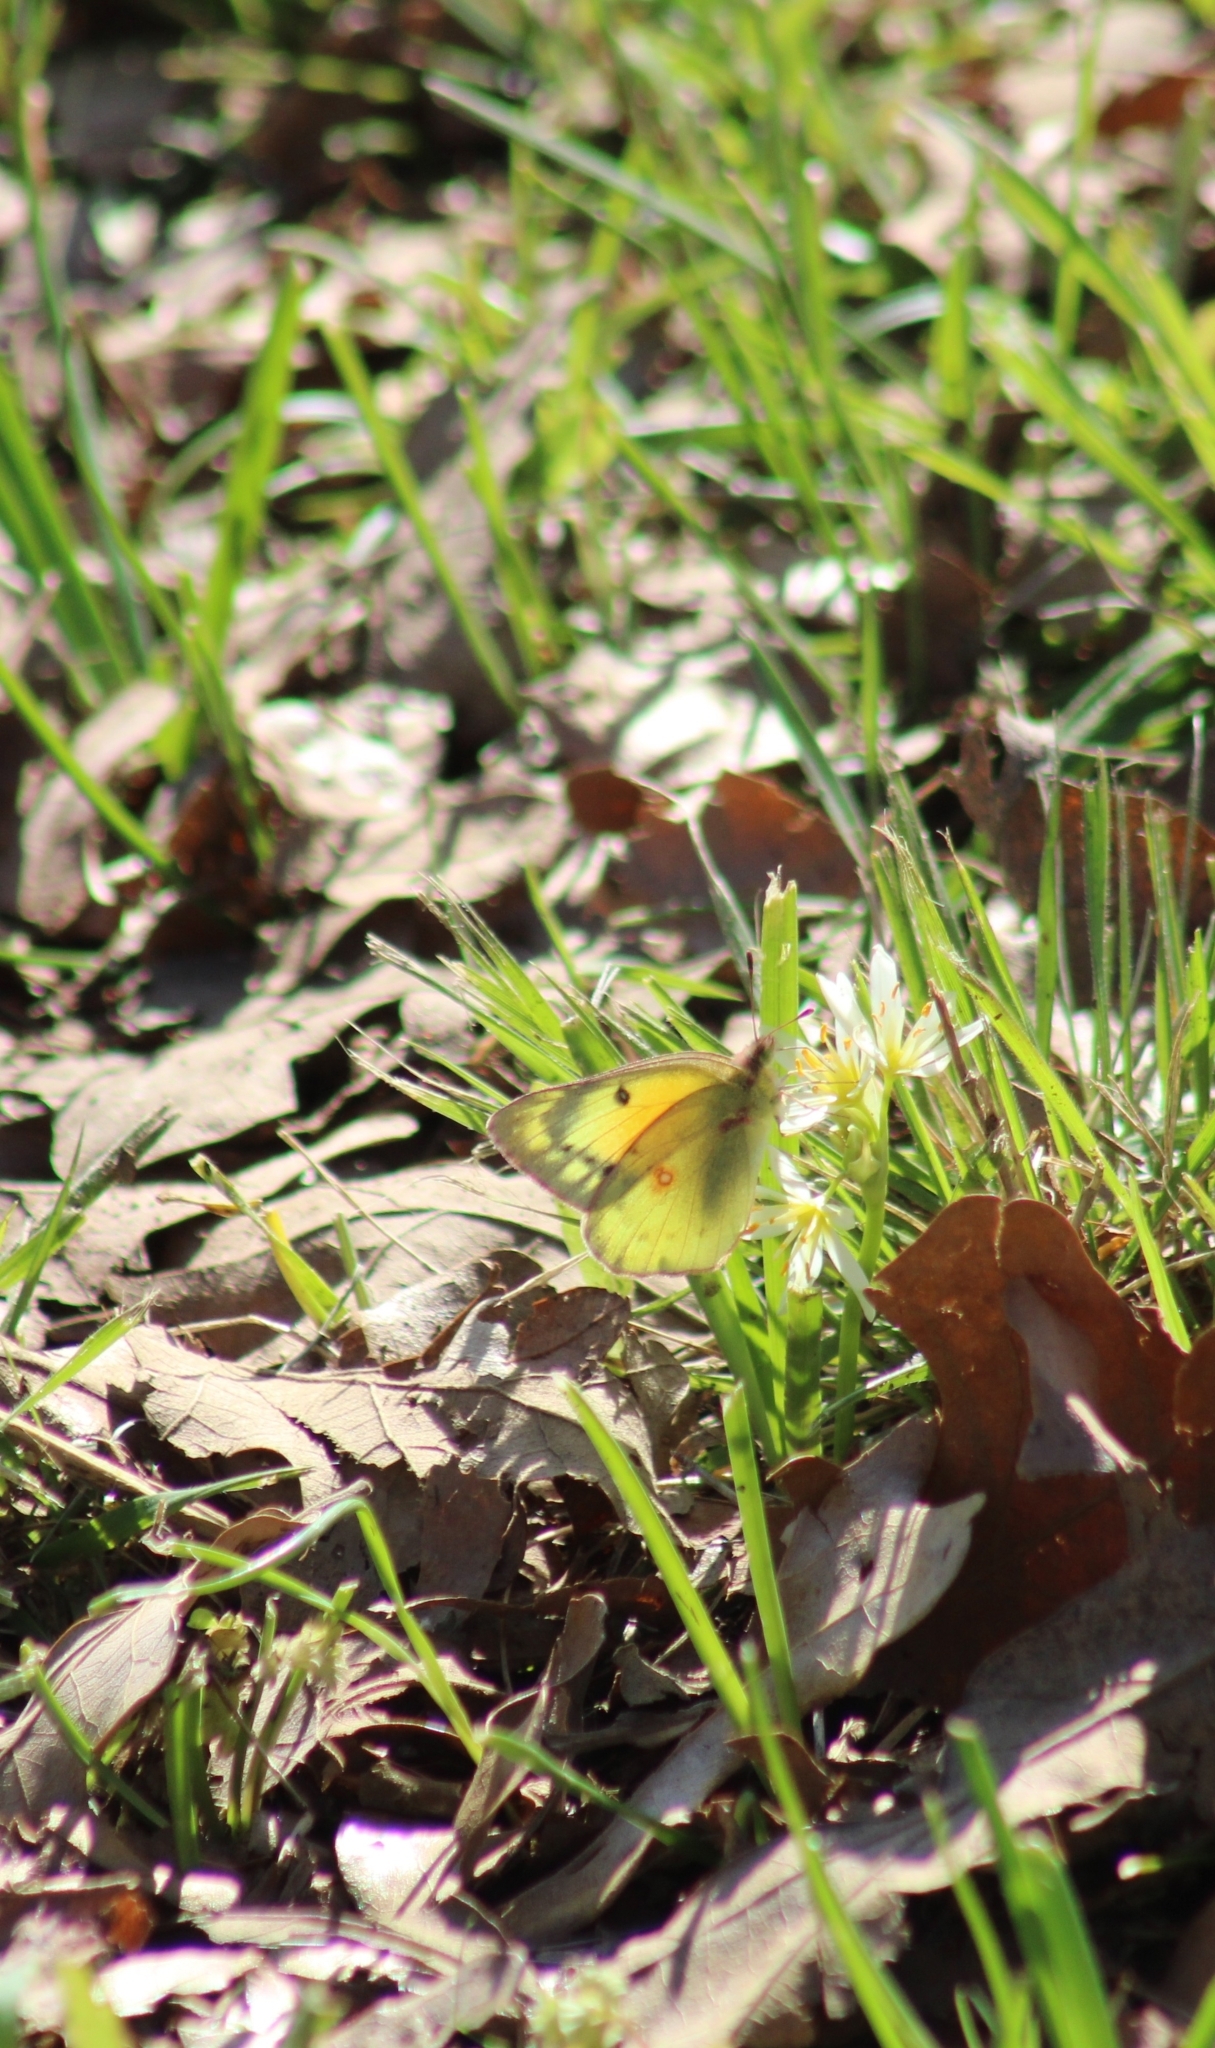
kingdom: Animalia
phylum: Arthropoda
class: Insecta
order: Lepidoptera
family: Pieridae
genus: Colias
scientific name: Colias eurytheme
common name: Alfalfa butterfly
